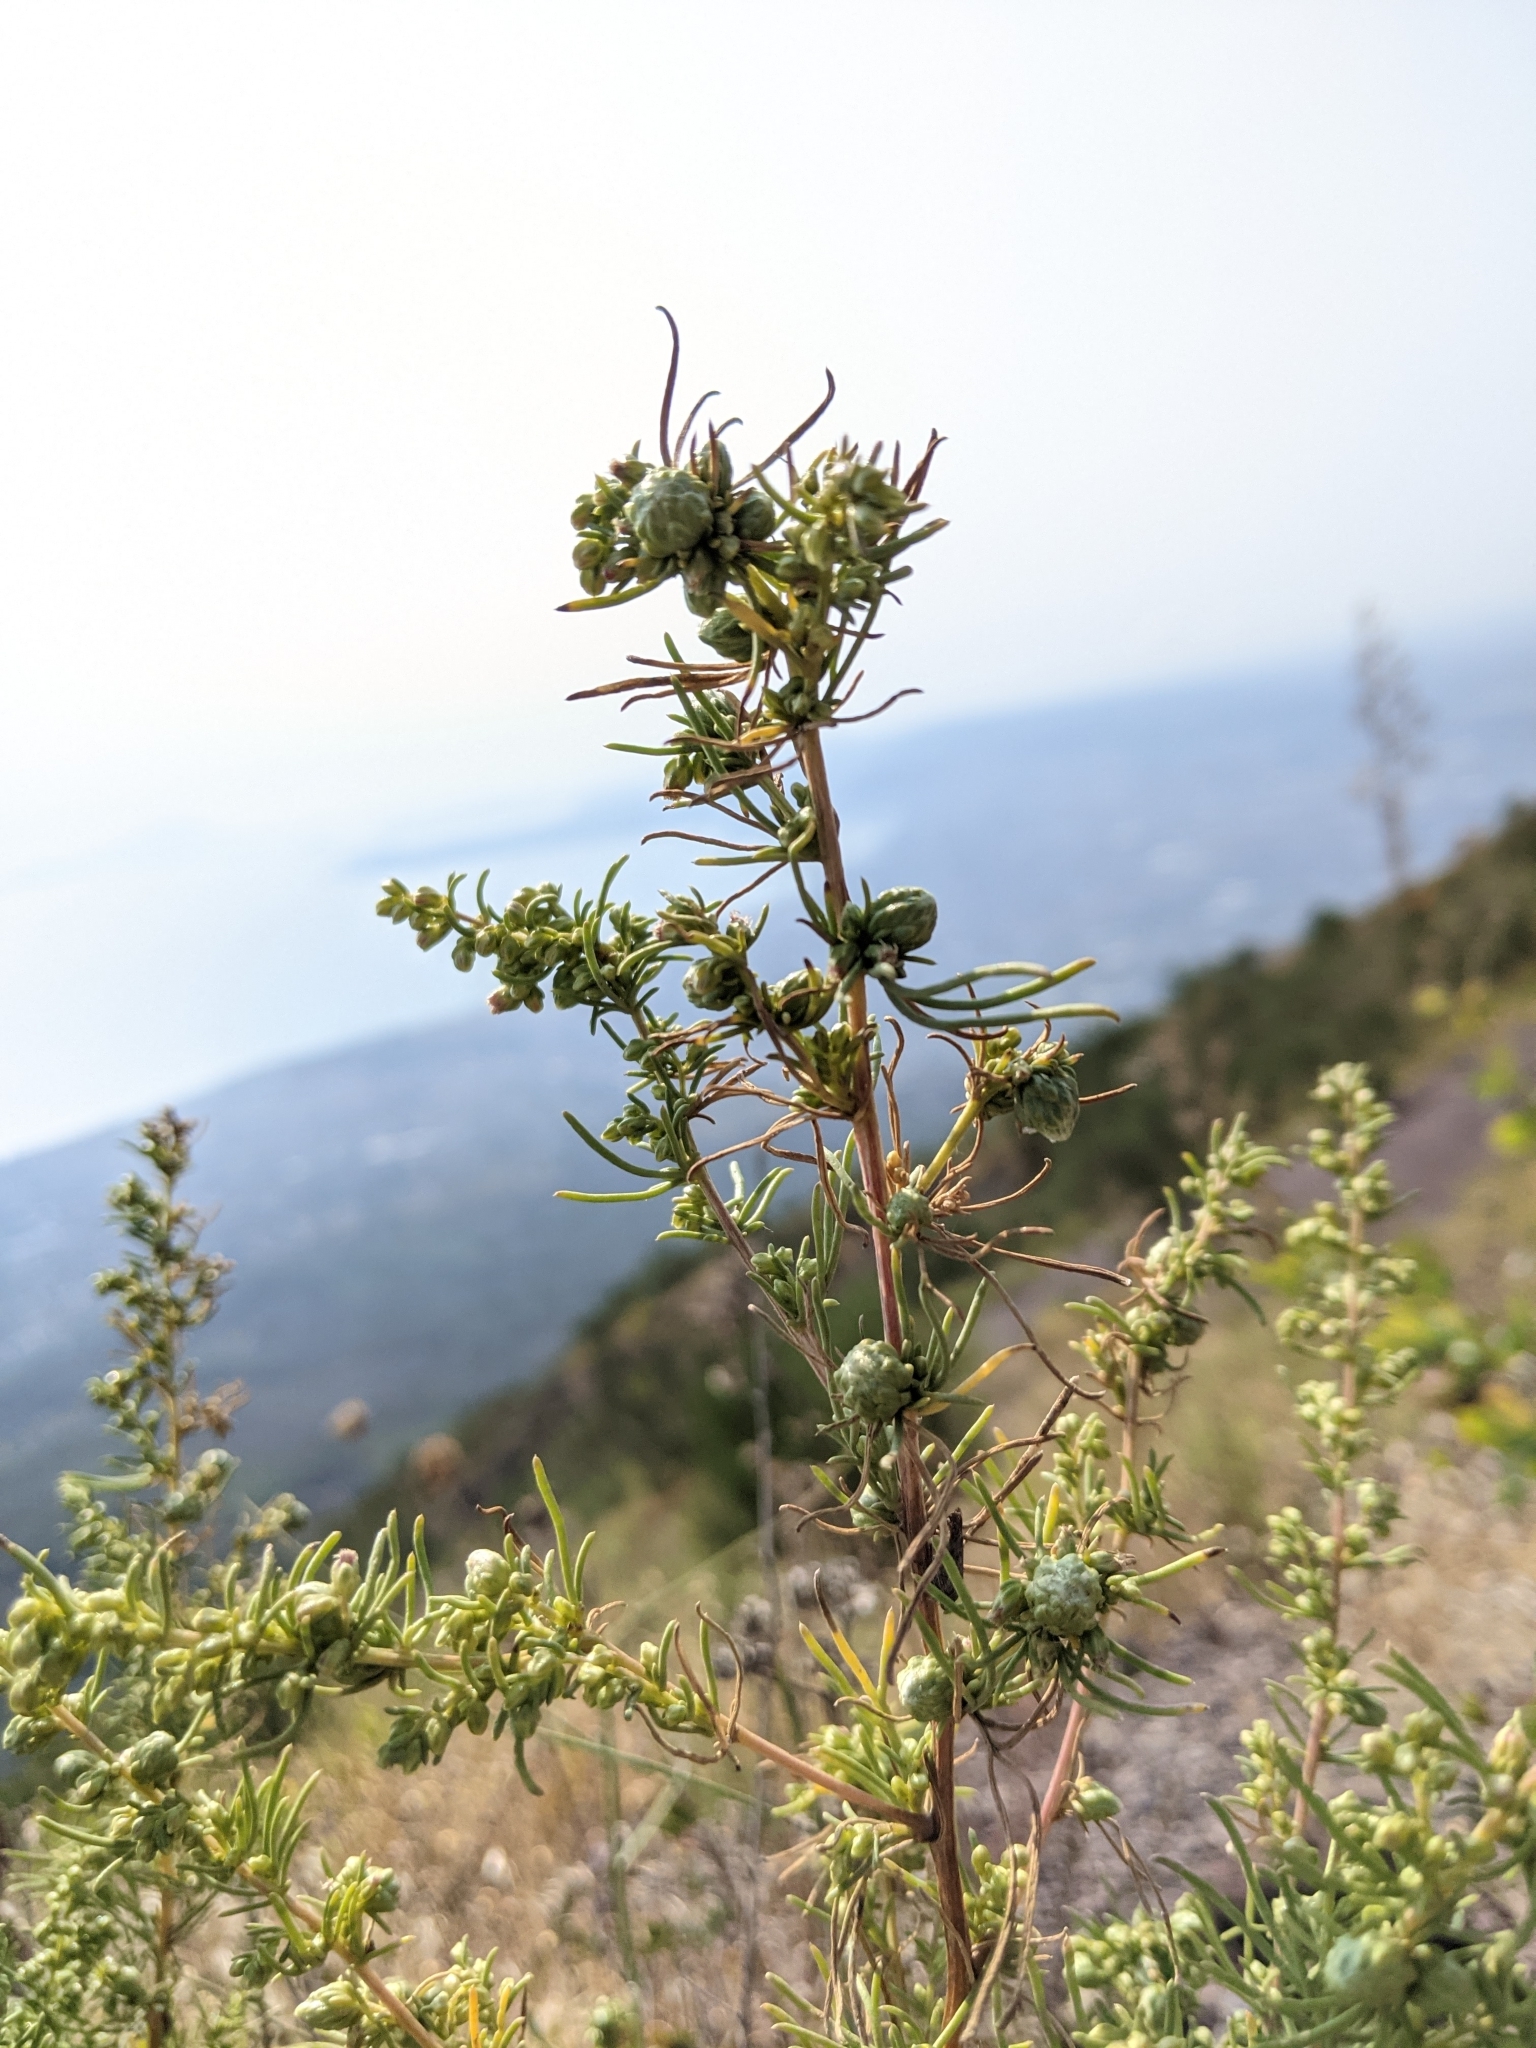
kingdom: Plantae
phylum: Tracheophyta
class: Magnoliopsida
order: Asterales
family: Asteraceae
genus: Artemisia
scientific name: Artemisia campestris
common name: Field wormwood
